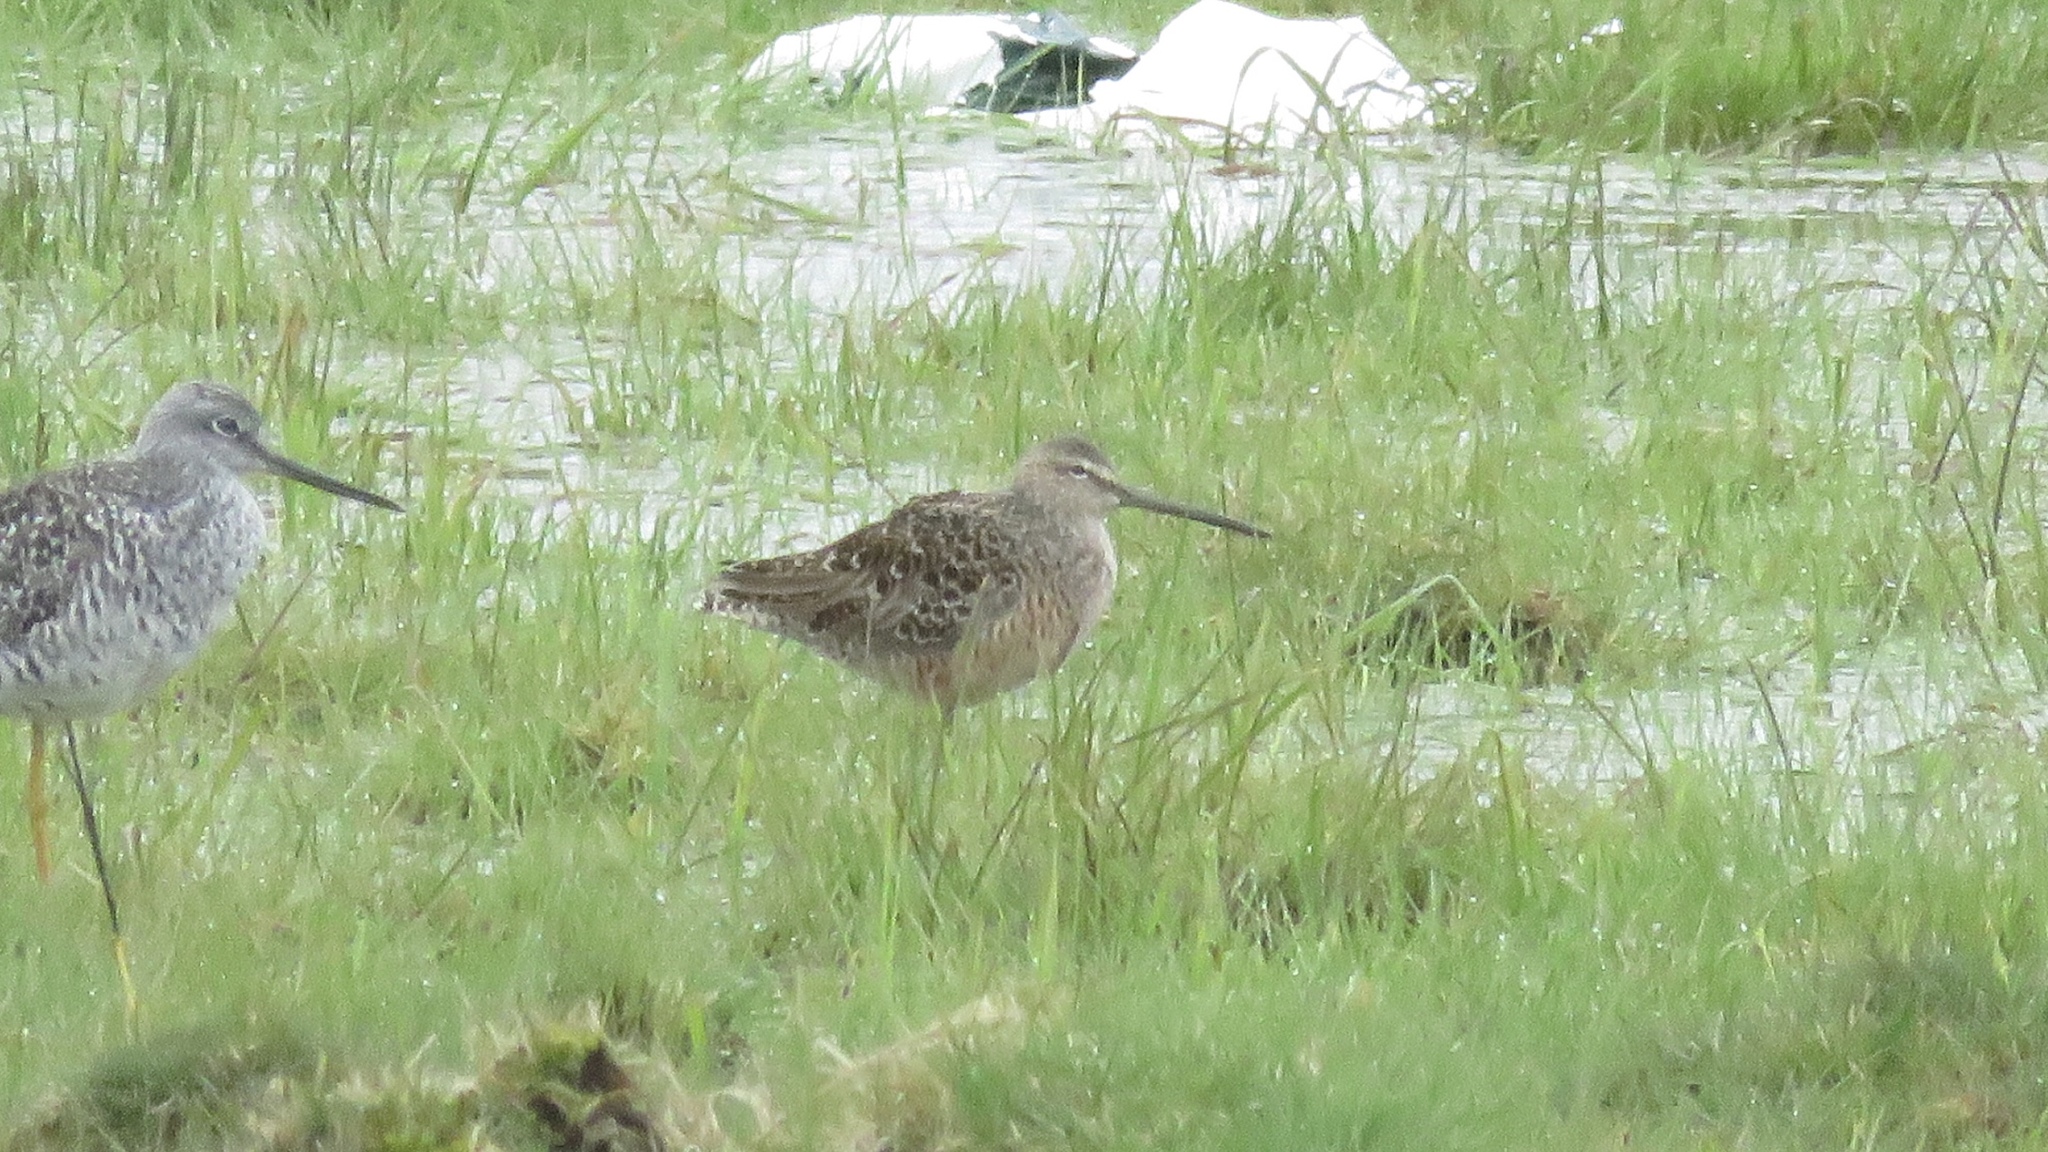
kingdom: Animalia
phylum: Chordata
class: Aves
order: Charadriiformes
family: Scolopacidae
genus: Limnodromus
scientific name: Limnodromus scolopaceus
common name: Long-billed dowitcher
